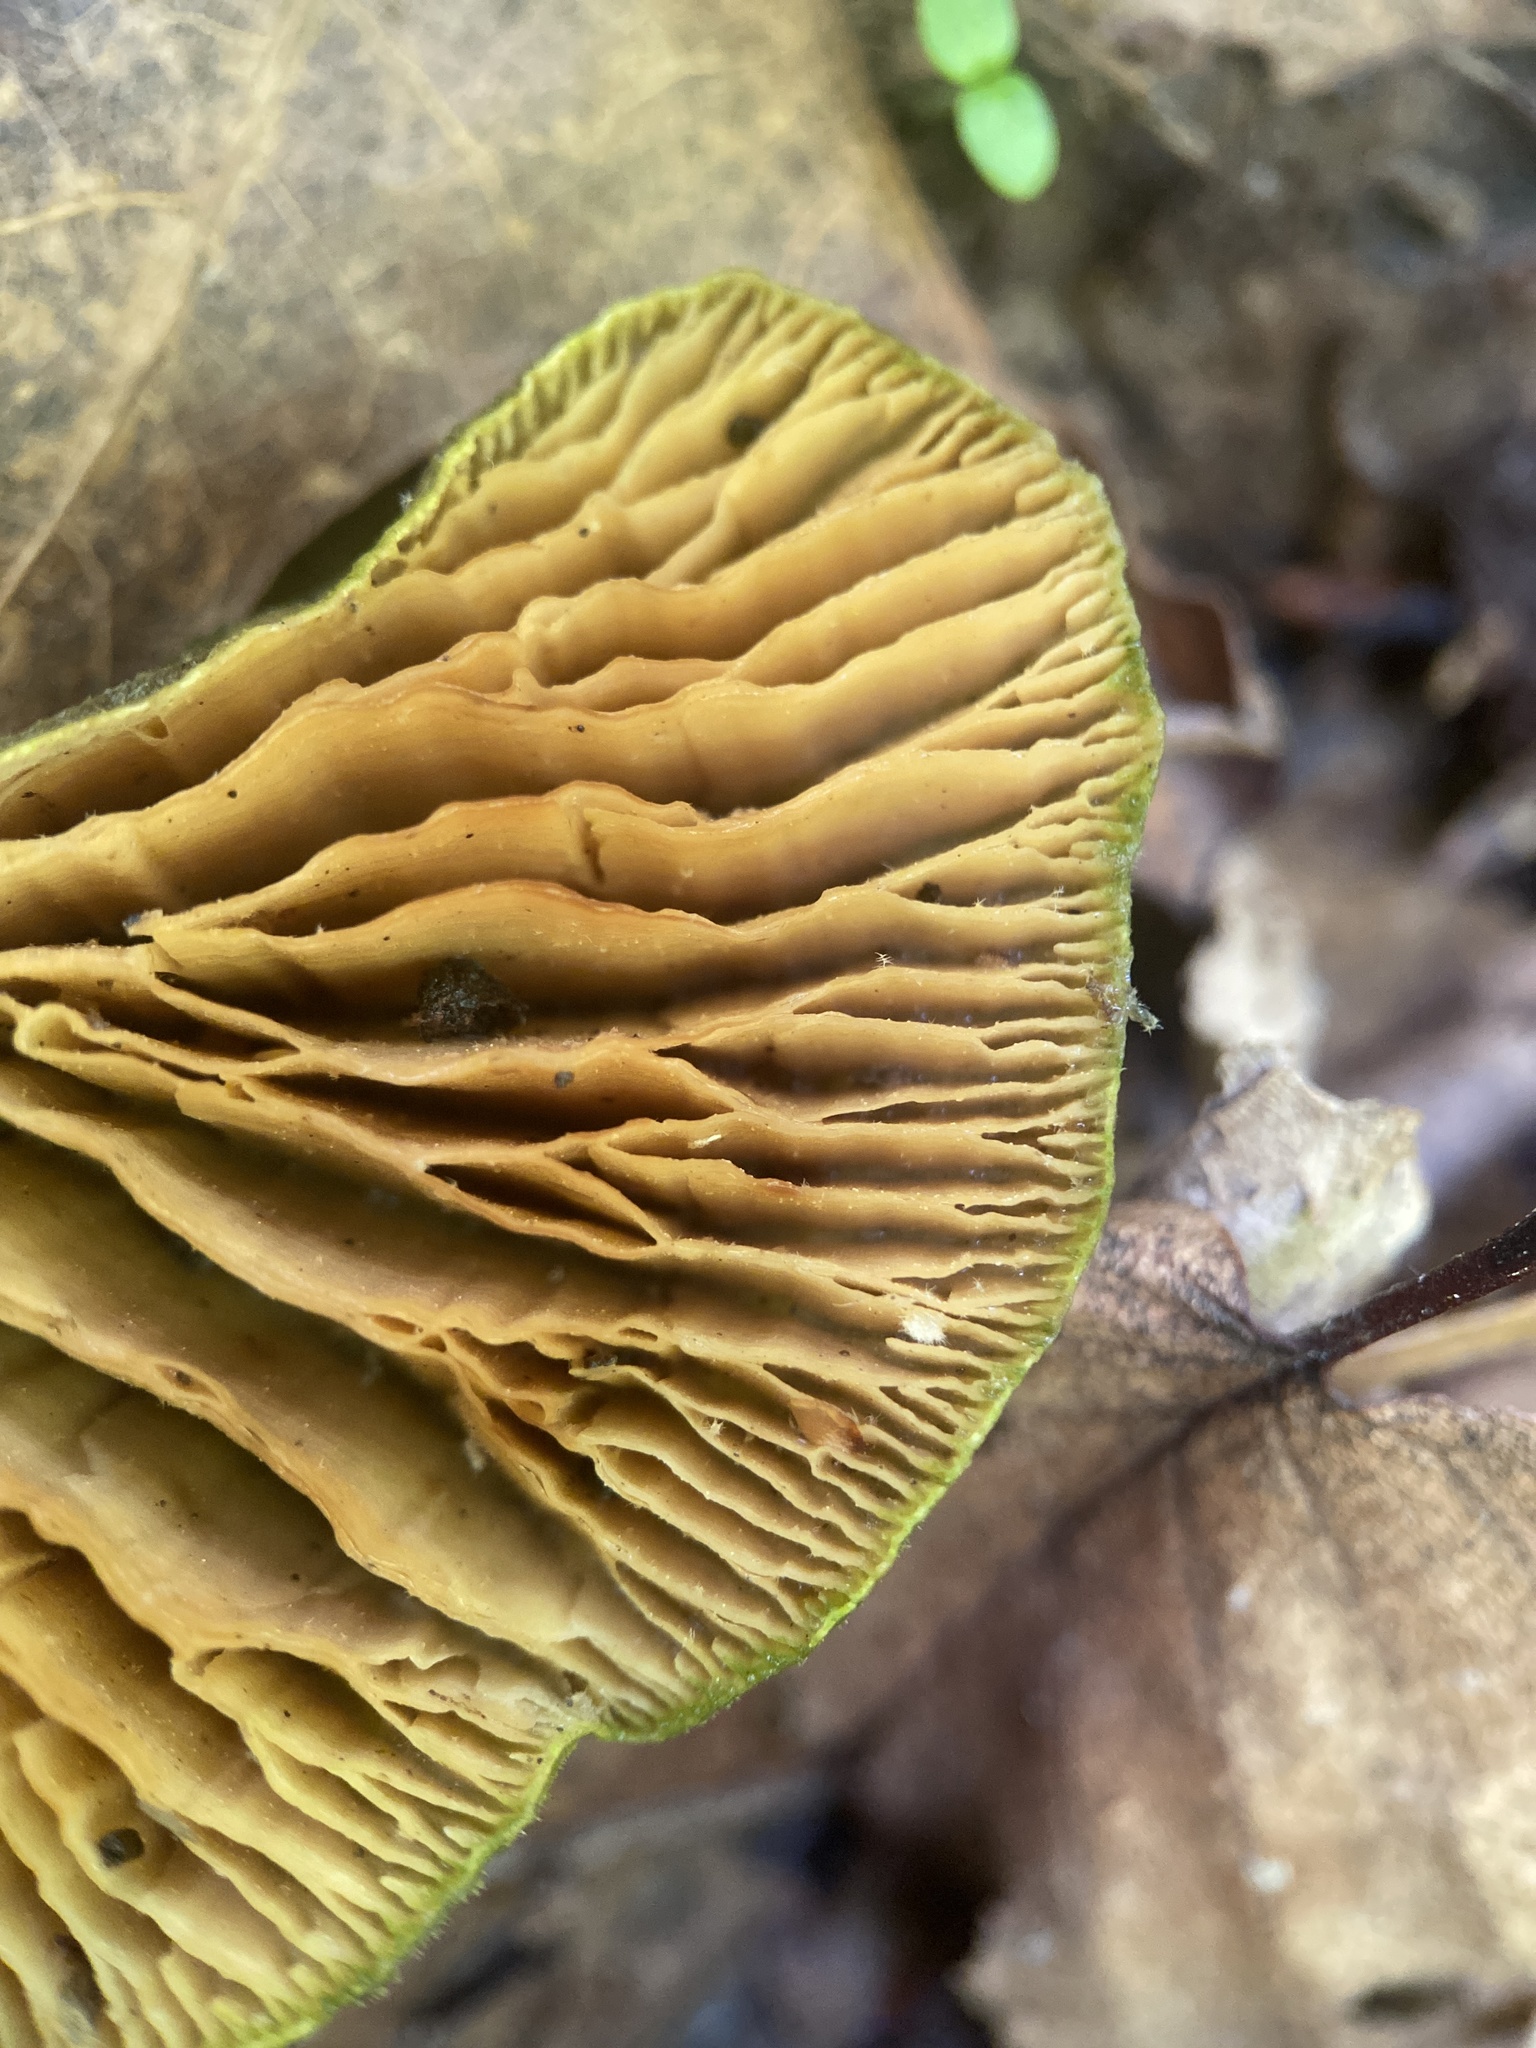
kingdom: Fungi
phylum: Basidiomycota
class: Agaricomycetes
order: Polyporales
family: Polyporaceae
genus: Lenzites
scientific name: Lenzites betulinus
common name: Birch mazegill
